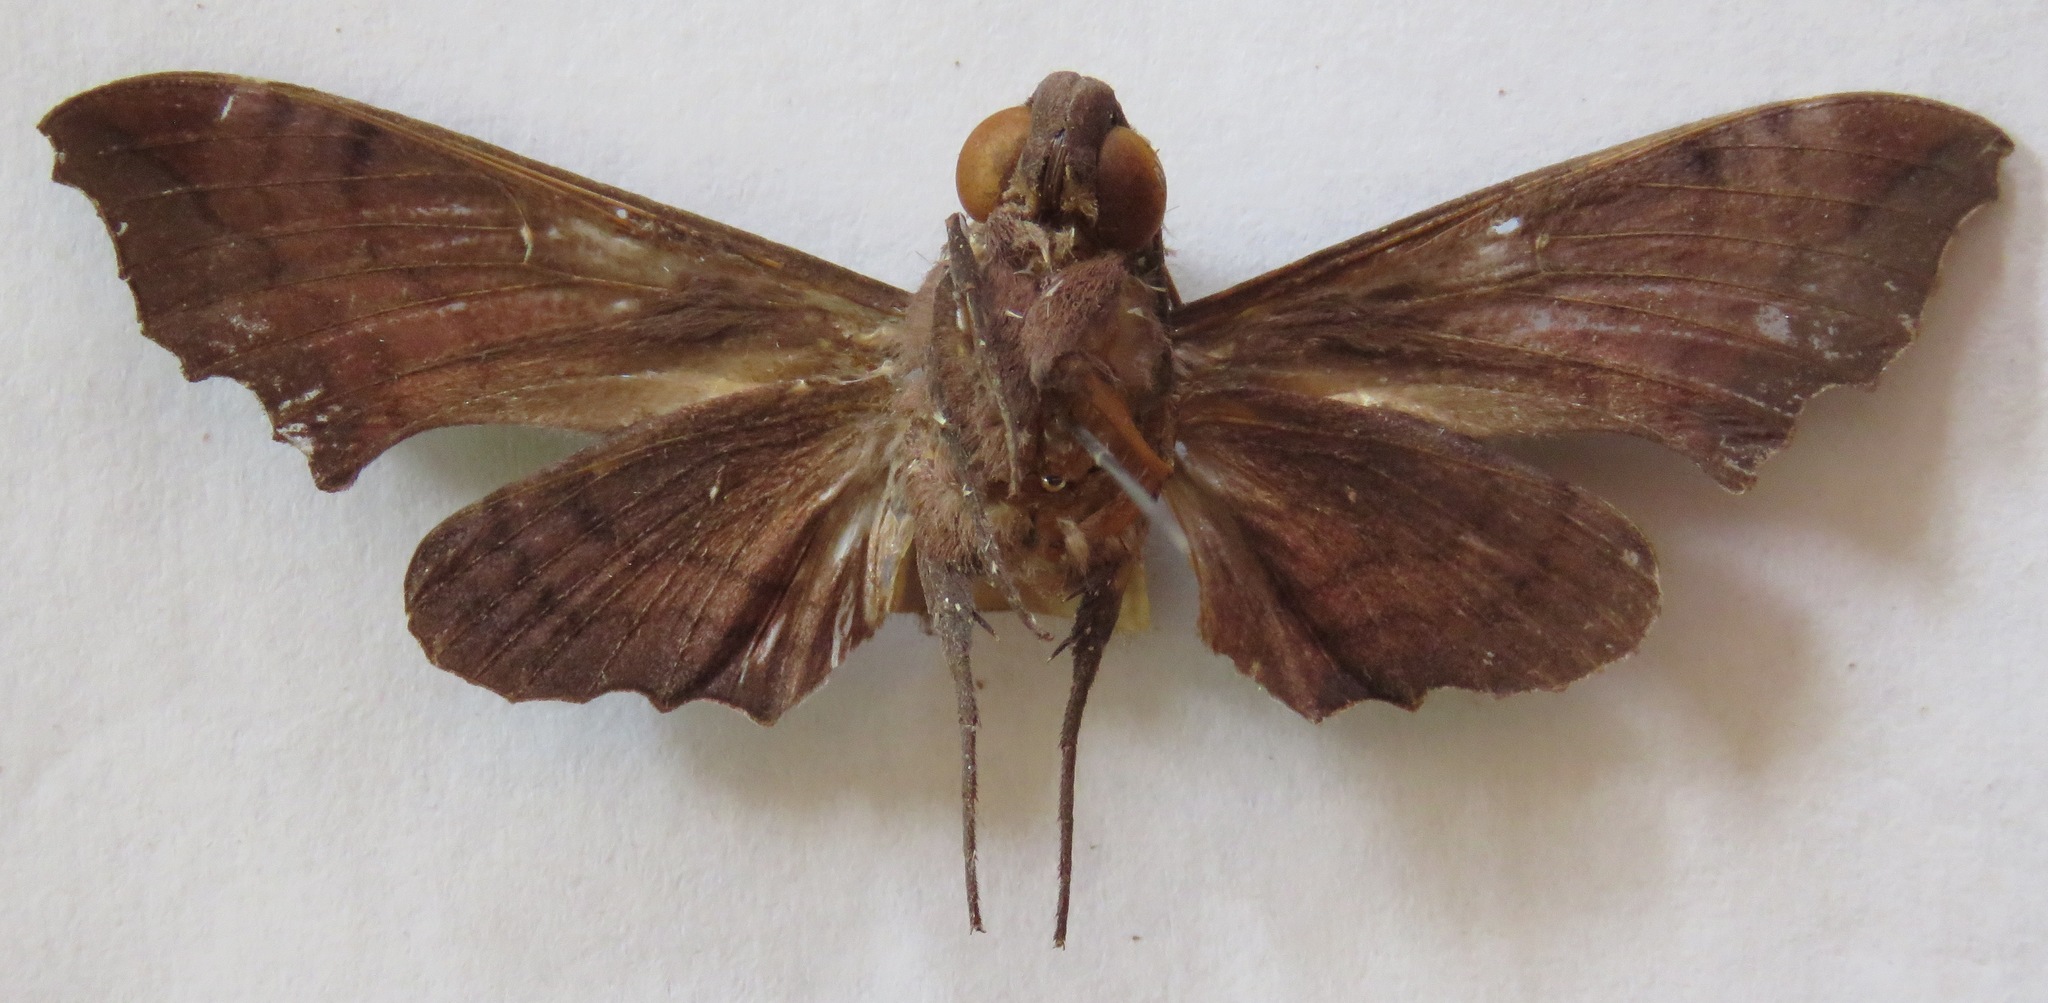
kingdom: Animalia
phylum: Arthropoda
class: Insecta
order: Lepidoptera
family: Sphingidae
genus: Enyo
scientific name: Enyo lugubris
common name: Mournful sphinx
